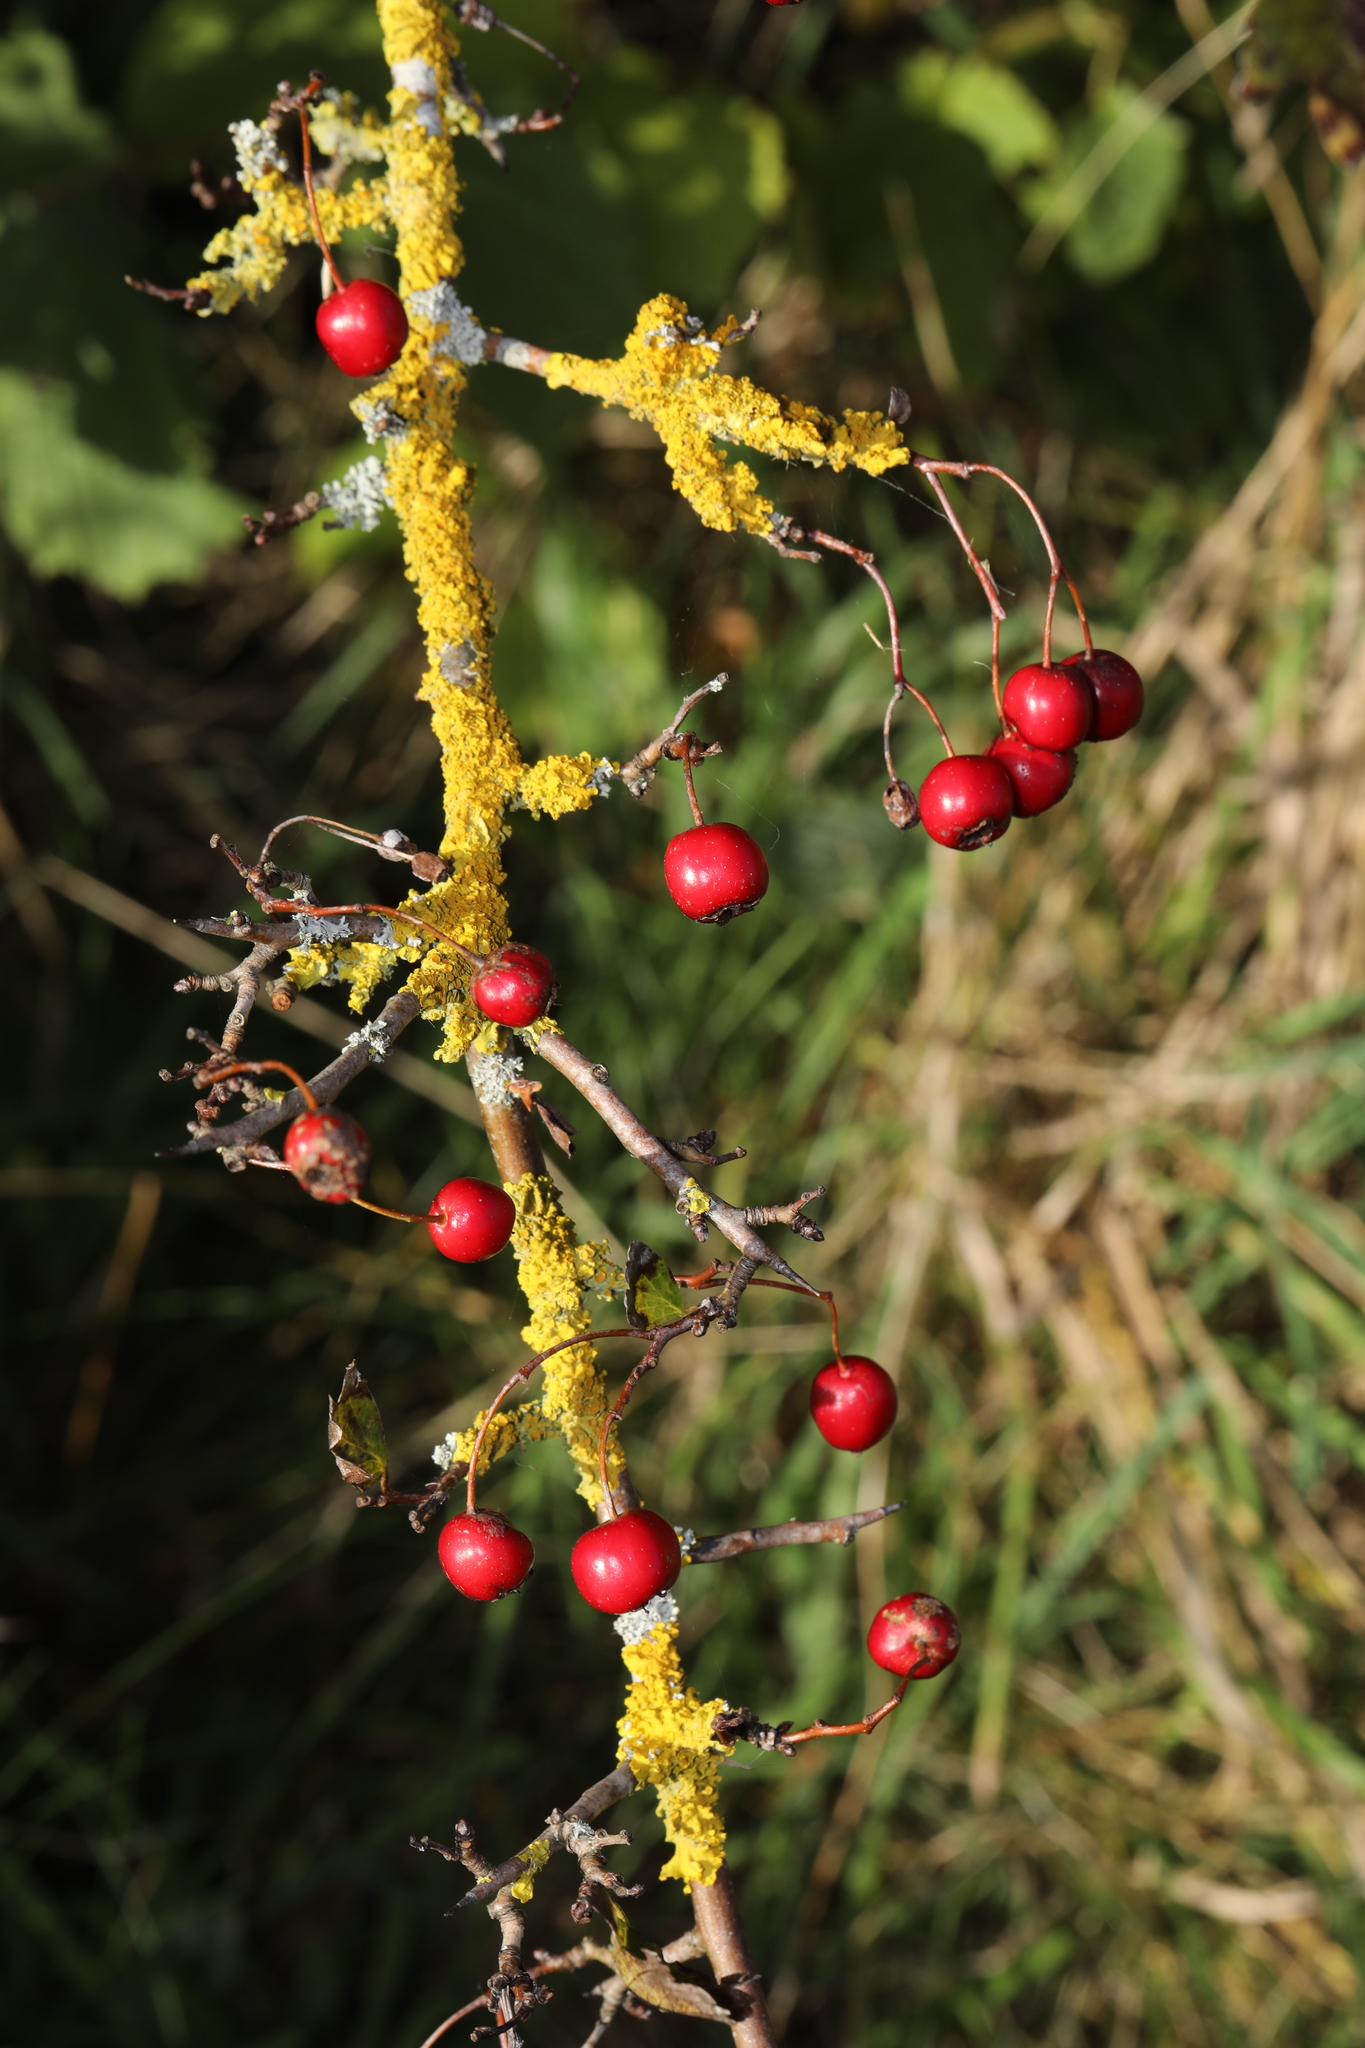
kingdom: Plantae
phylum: Tracheophyta
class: Magnoliopsida
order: Rosales
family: Rosaceae
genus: Crataegus
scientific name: Crataegus monogyna
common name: Hawthorn
